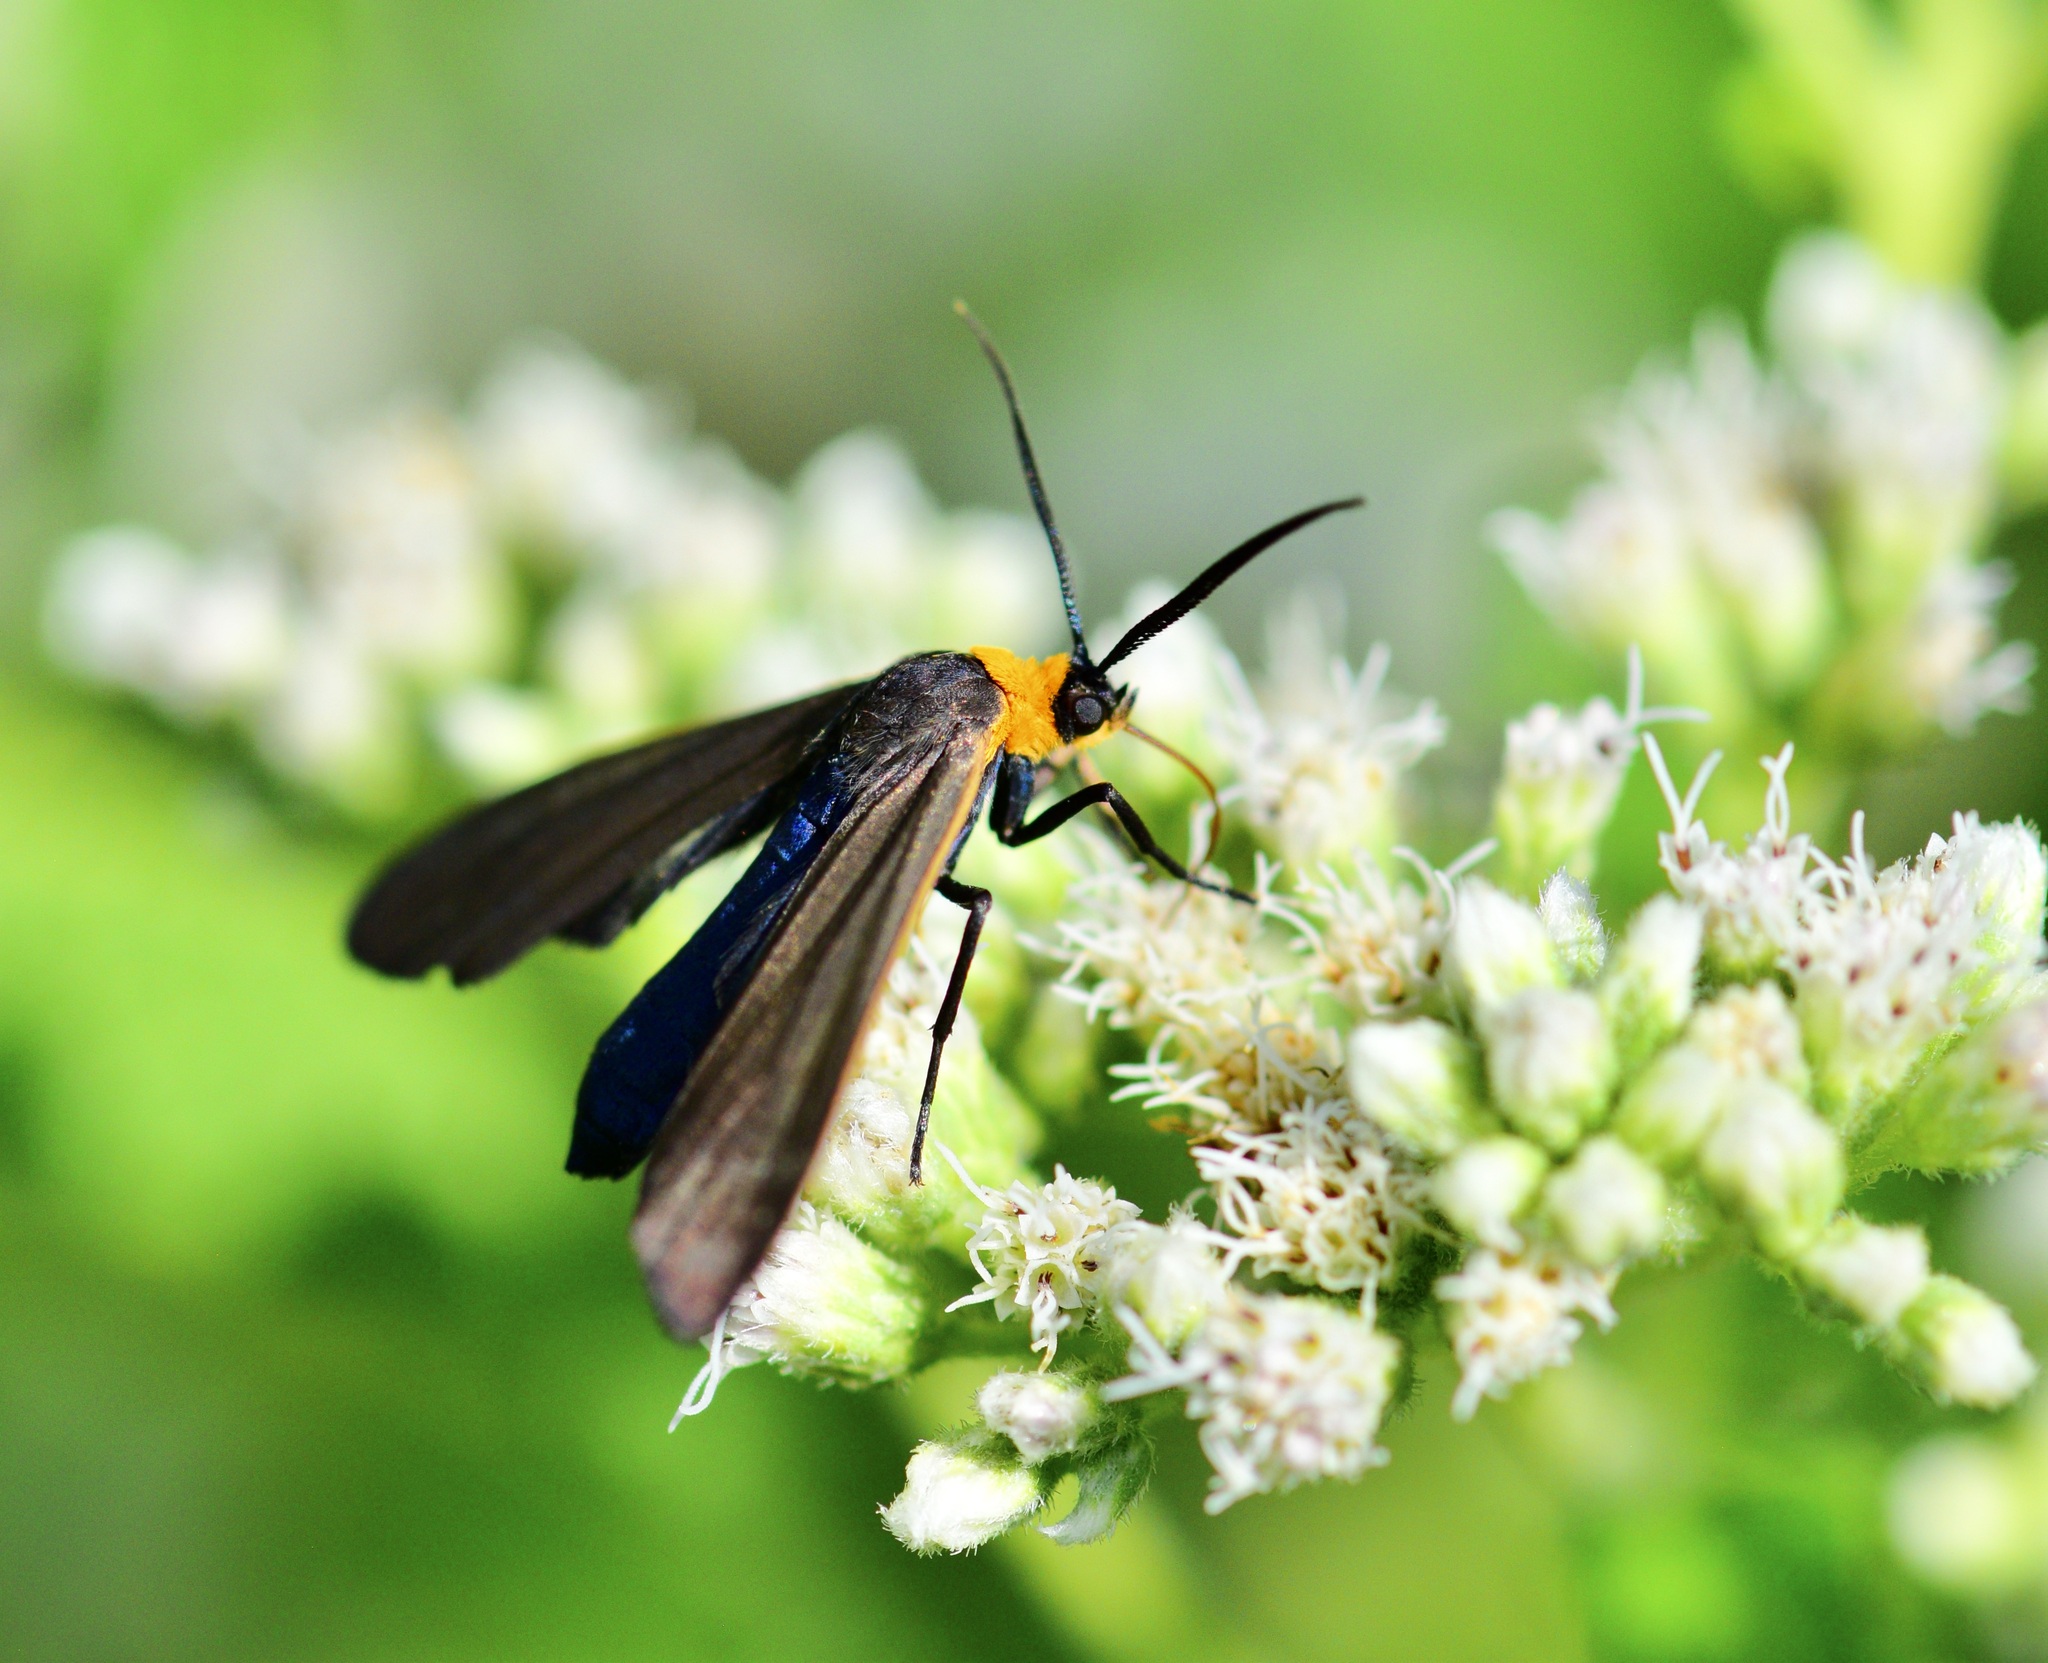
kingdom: Animalia
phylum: Arthropoda
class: Insecta
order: Lepidoptera
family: Erebidae
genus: Cisseps
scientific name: Cisseps fulvicollis
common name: Yellow-collared scape moth
